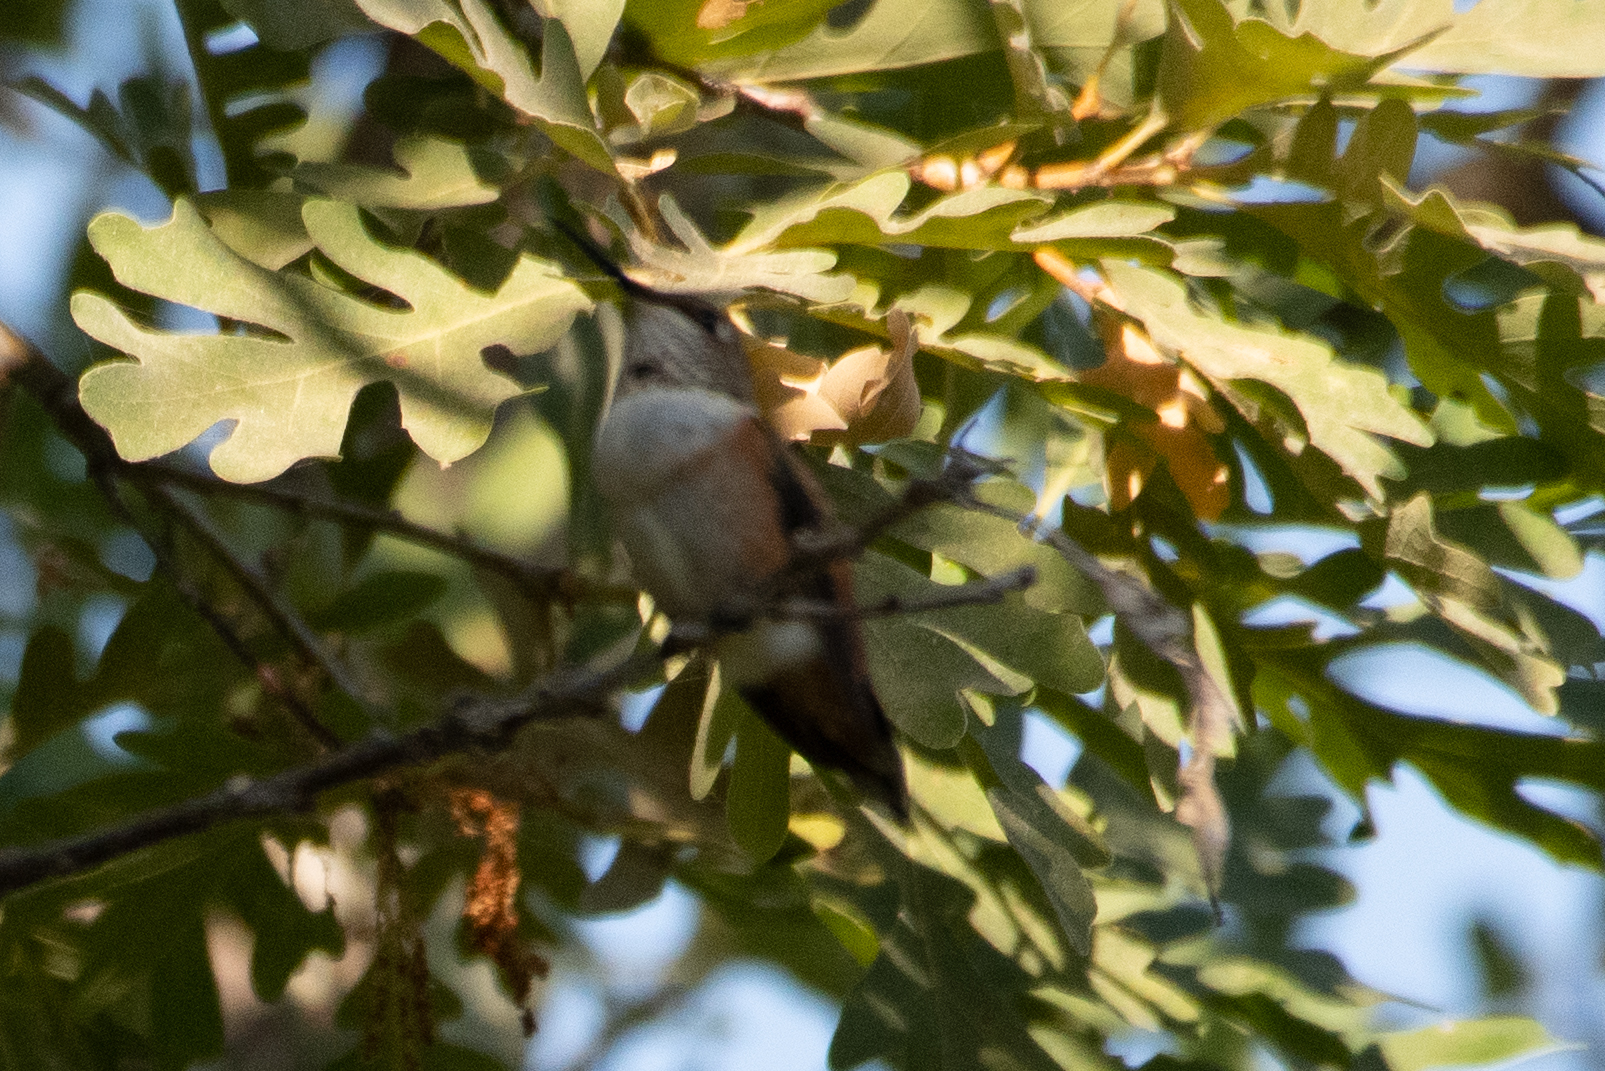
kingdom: Animalia
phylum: Chordata
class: Aves
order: Apodiformes
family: Trochilidae
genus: Selasphorus
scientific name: Selasphorus
